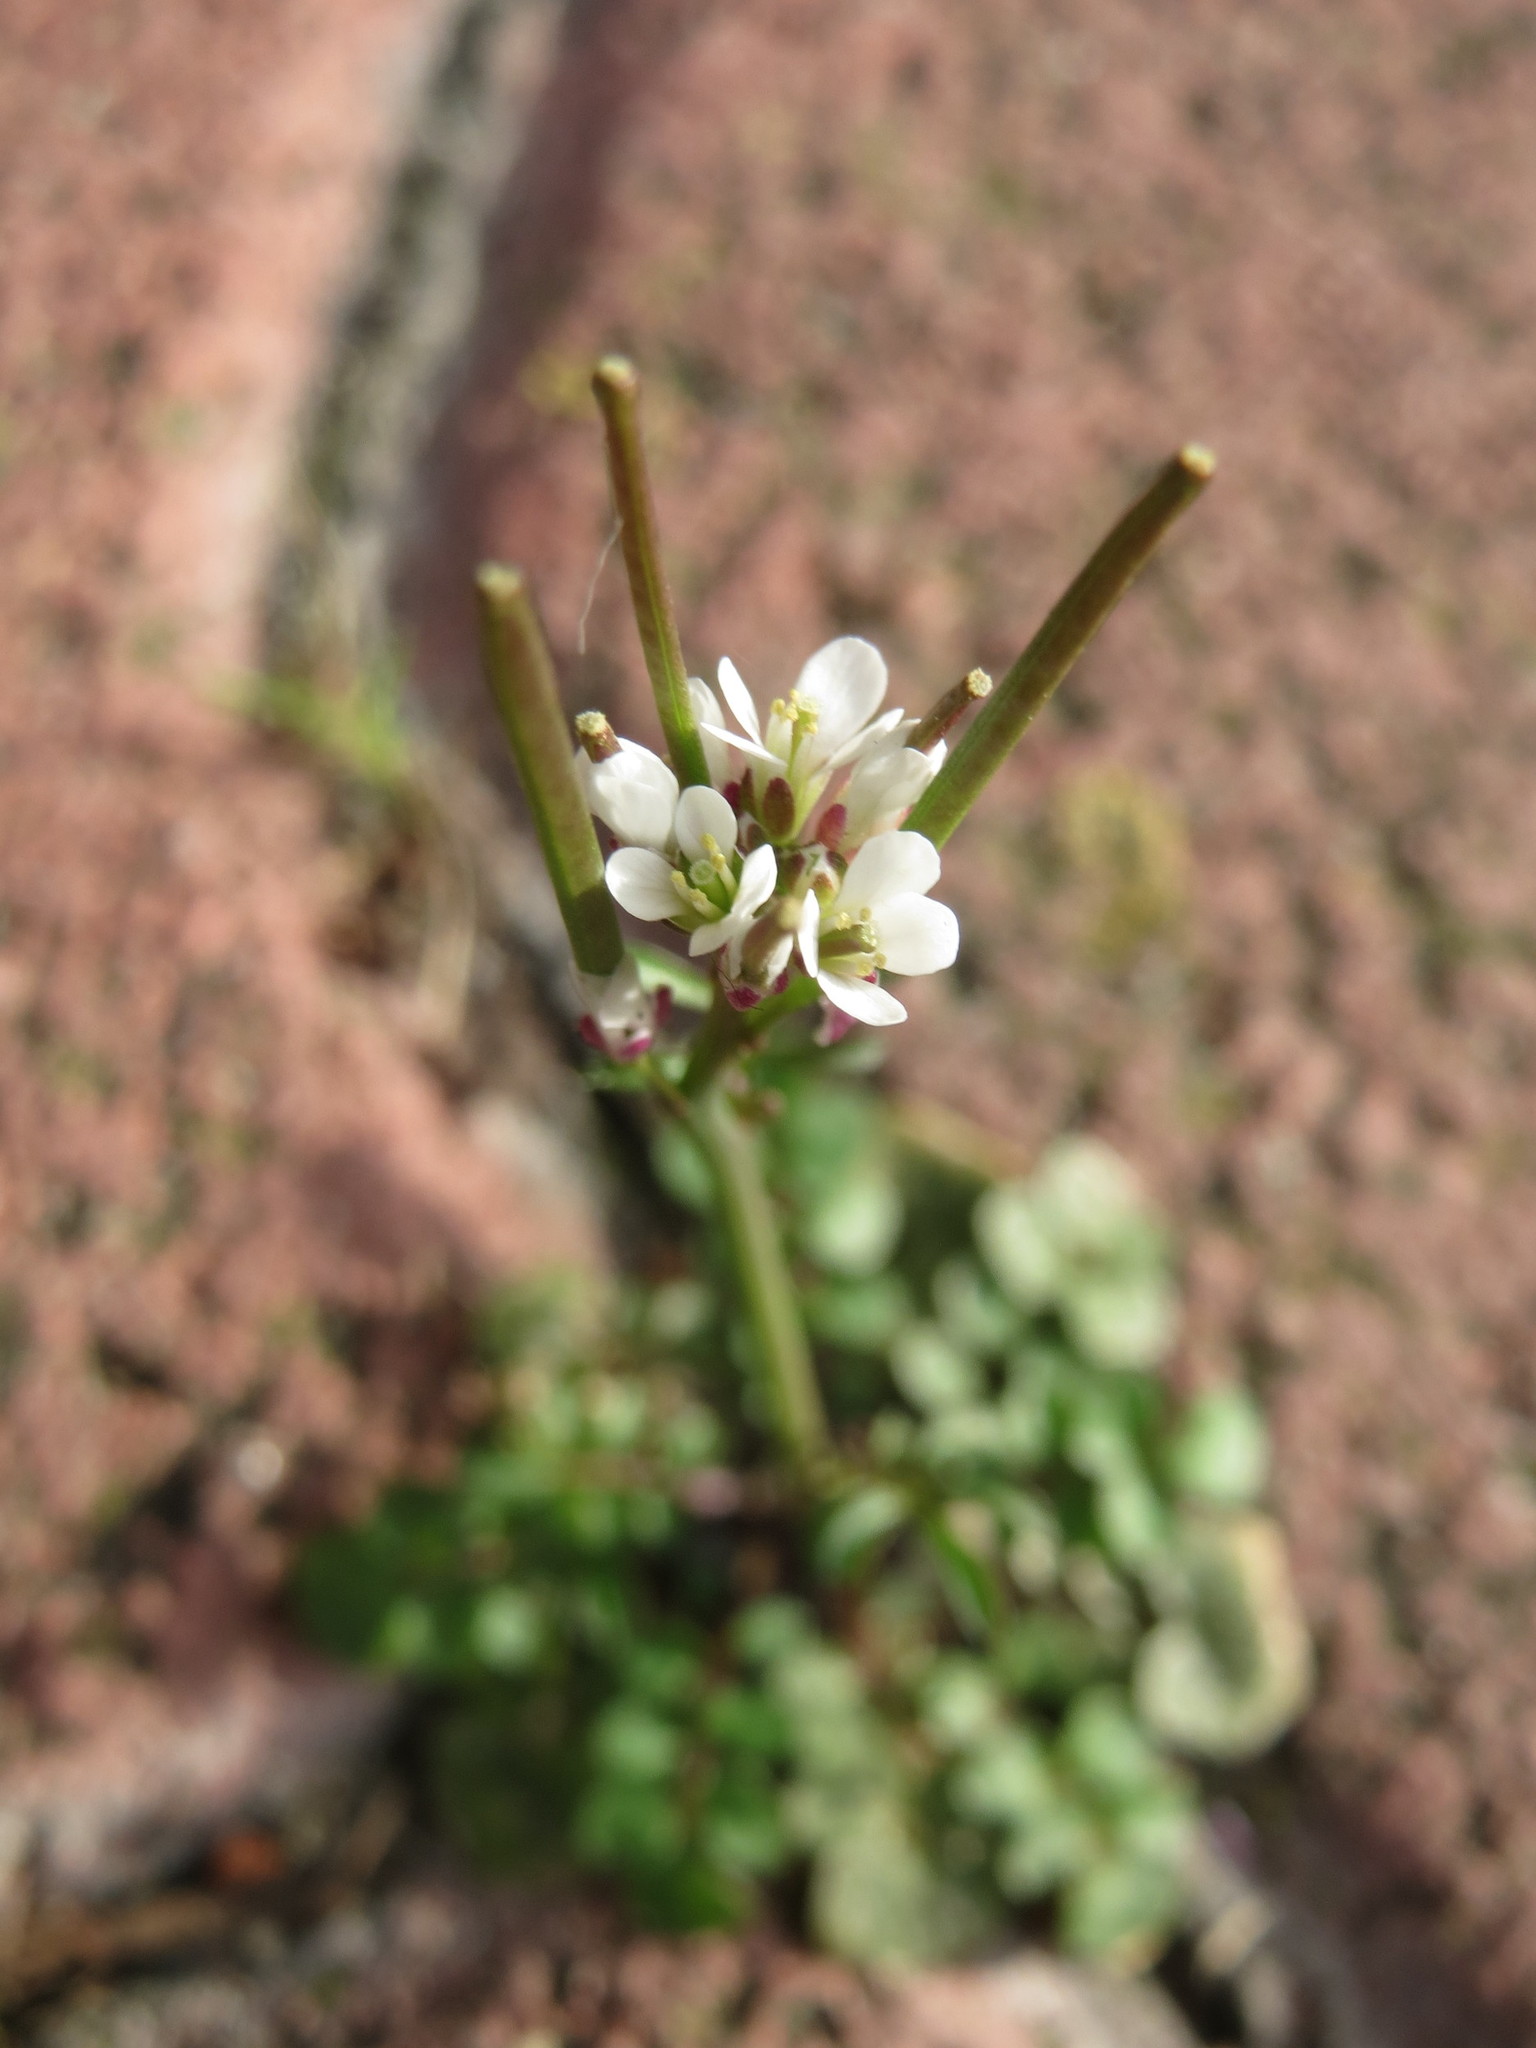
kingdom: Plantae
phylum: Tracheophyta
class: Magnoliopsida
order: Brassicales
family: Brassicaceae
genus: Cardamine
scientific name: Cardamine hirsuta
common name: Hairy bittercress
